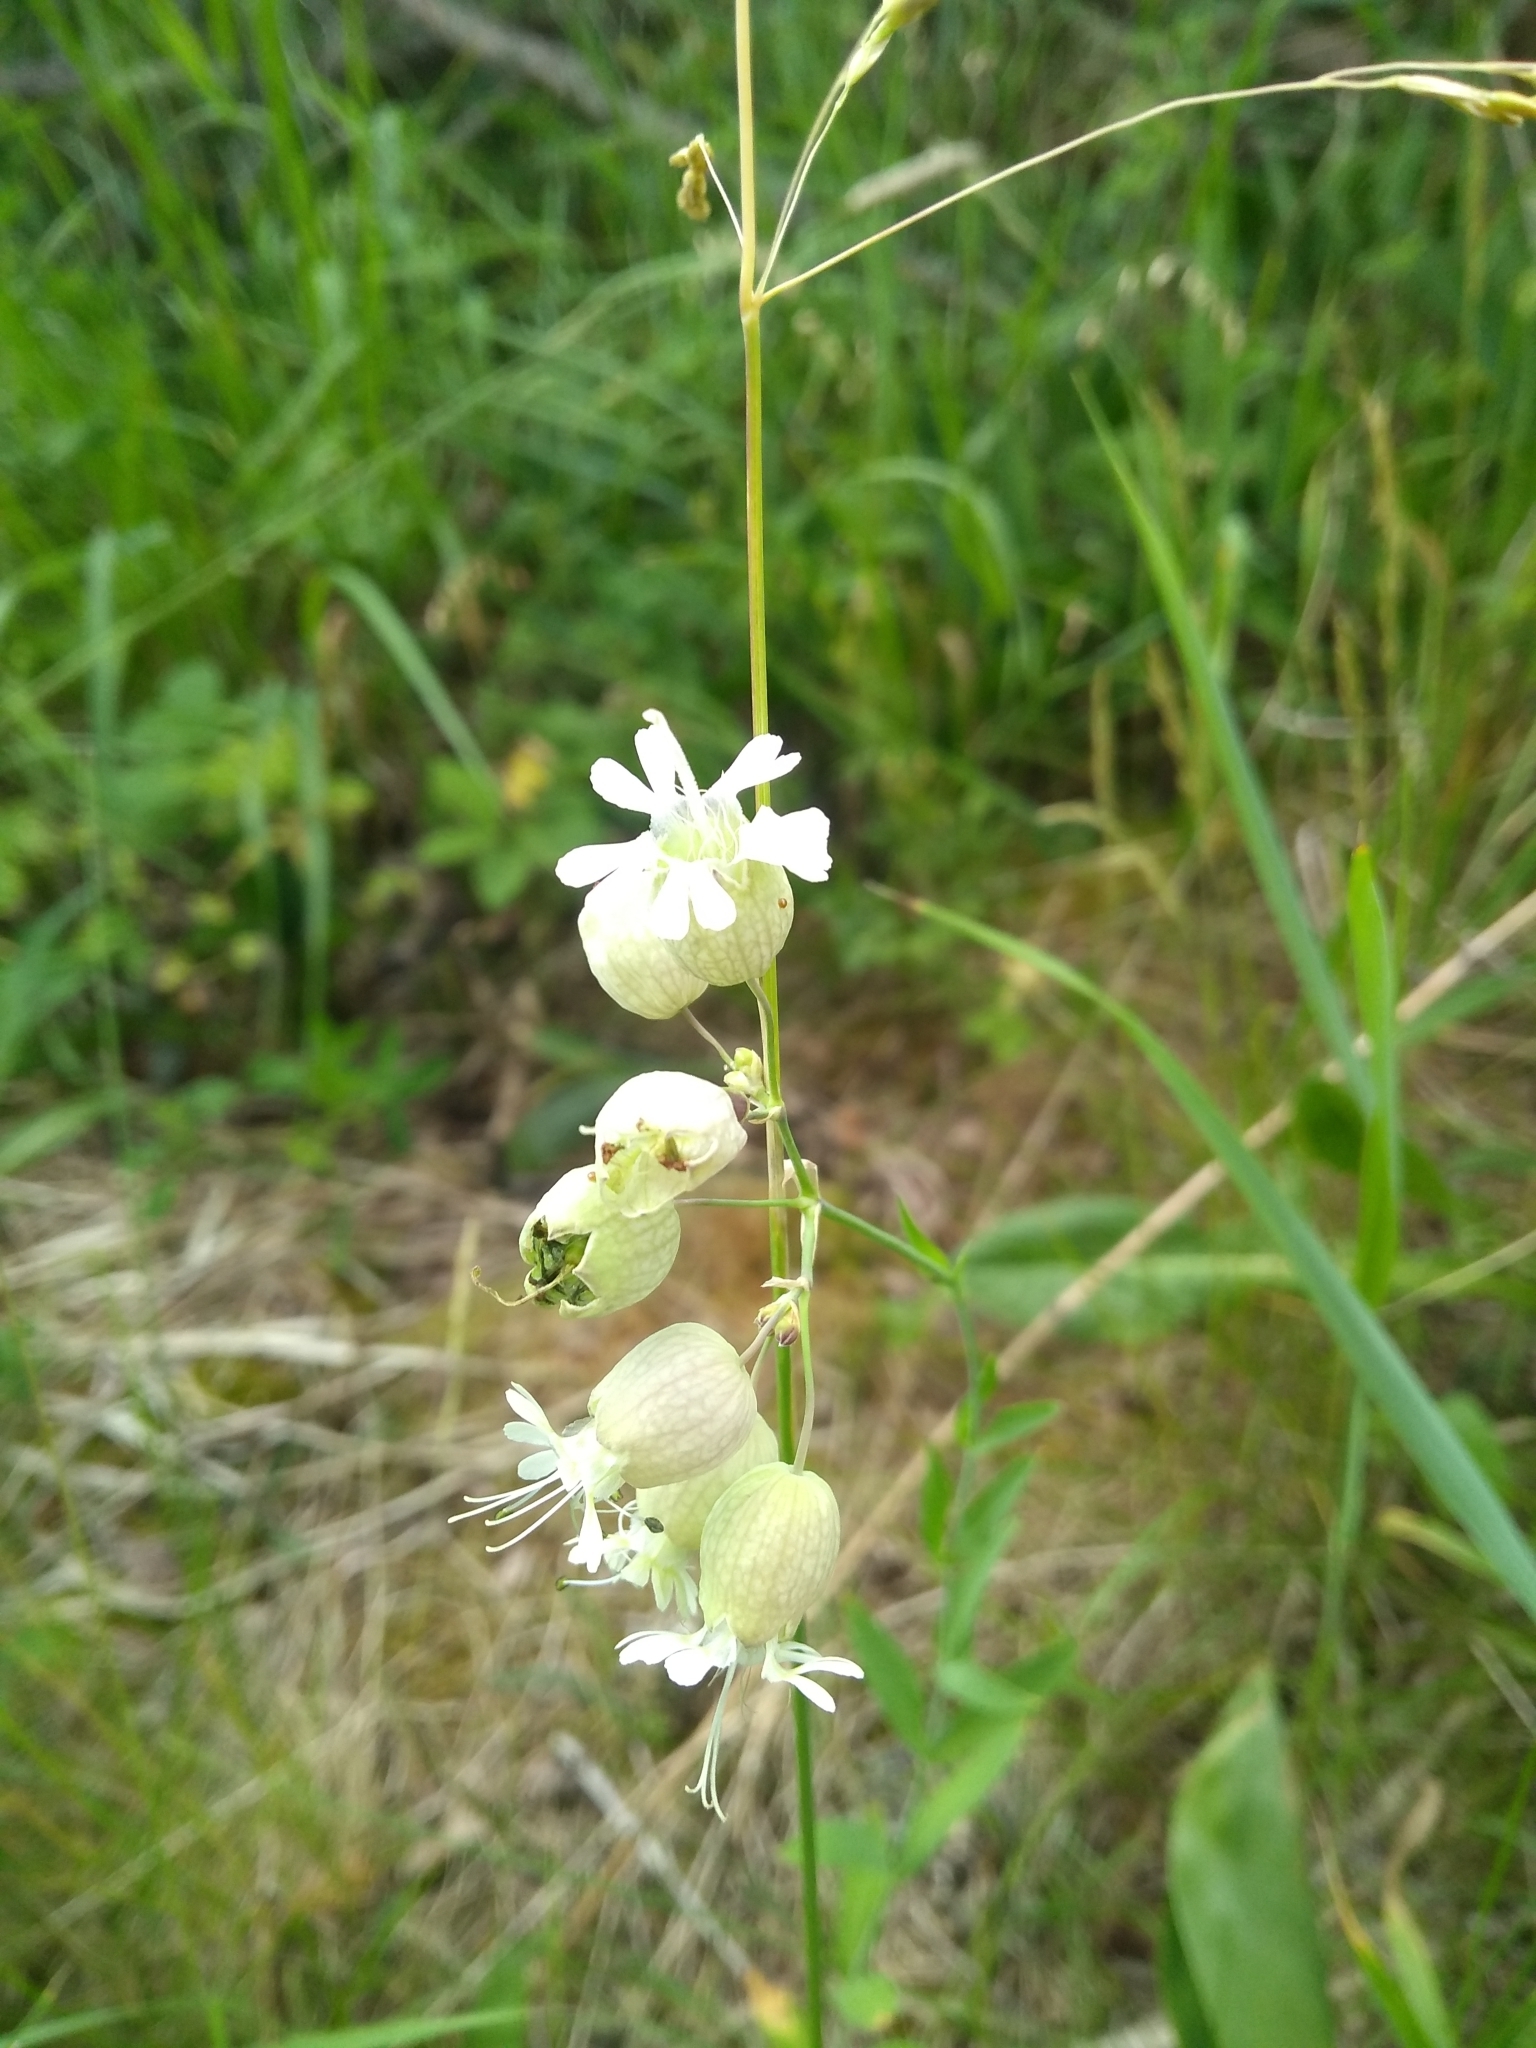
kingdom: Plantae
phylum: Tracheophyta
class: Magnoliopsida
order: Caryophyllales
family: Caryophyllaceae
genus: Silene
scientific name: Silene vulgaris
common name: Bladder campion
